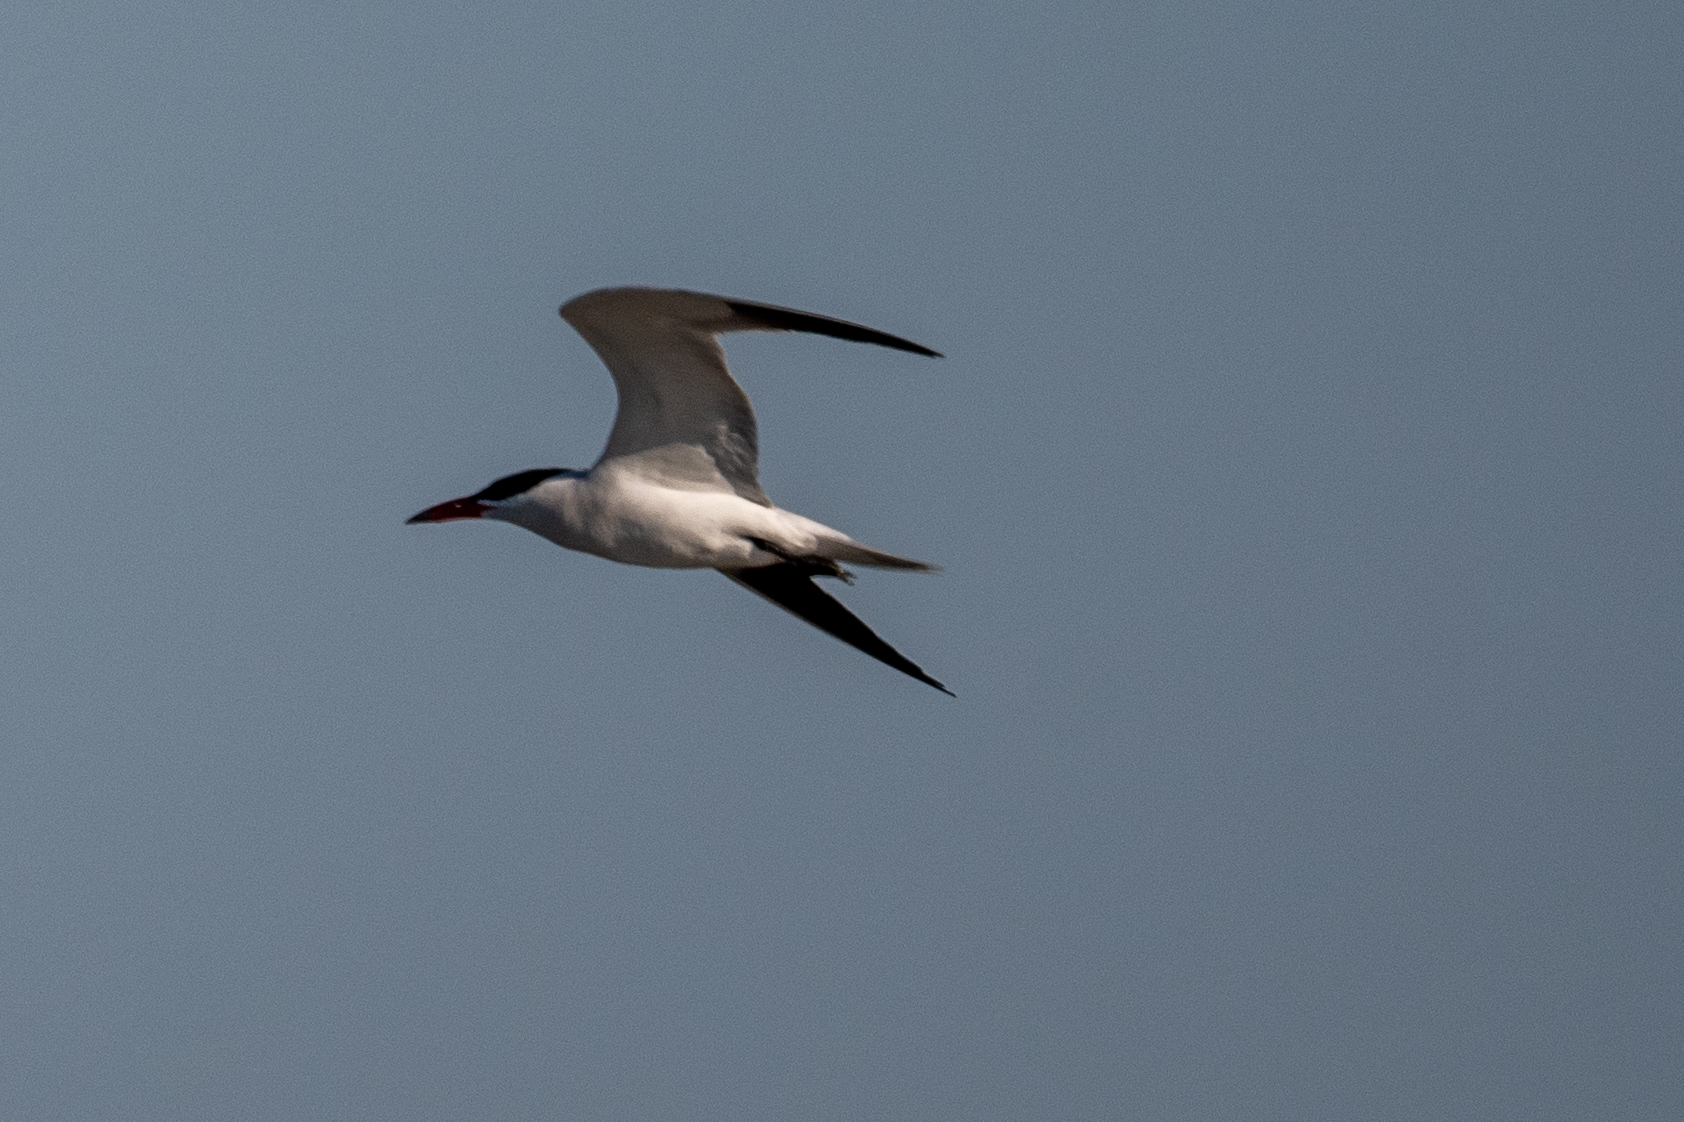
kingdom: Animalia
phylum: Chordata
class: Aves
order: Charadriiformes
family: Laridae
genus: Hydroprogne
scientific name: Hydroprogne caspia
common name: Caspian tern
